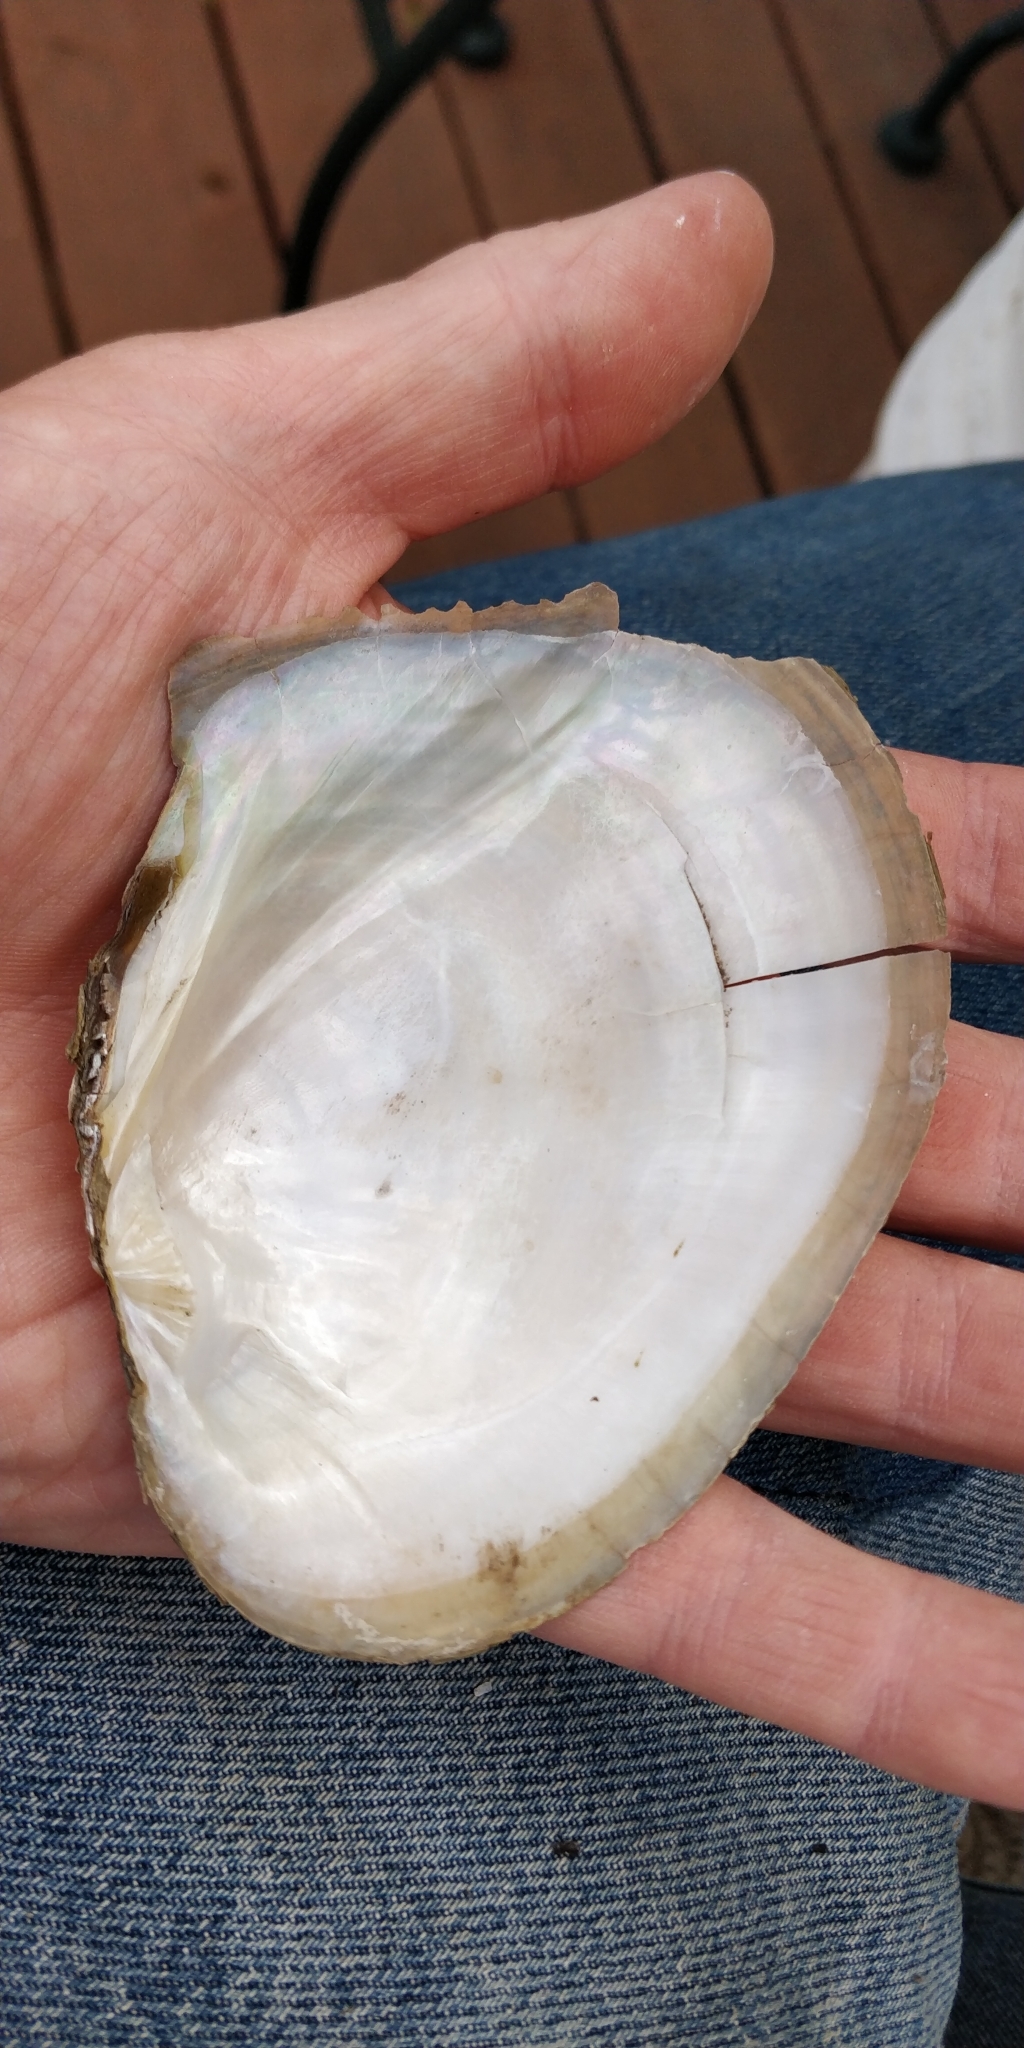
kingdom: Animalia
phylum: Mollusca
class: Bivalvia
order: Unionida
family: Unionidae
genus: Lasmigona
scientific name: Lasmigona complanata
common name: White heelsplitter
